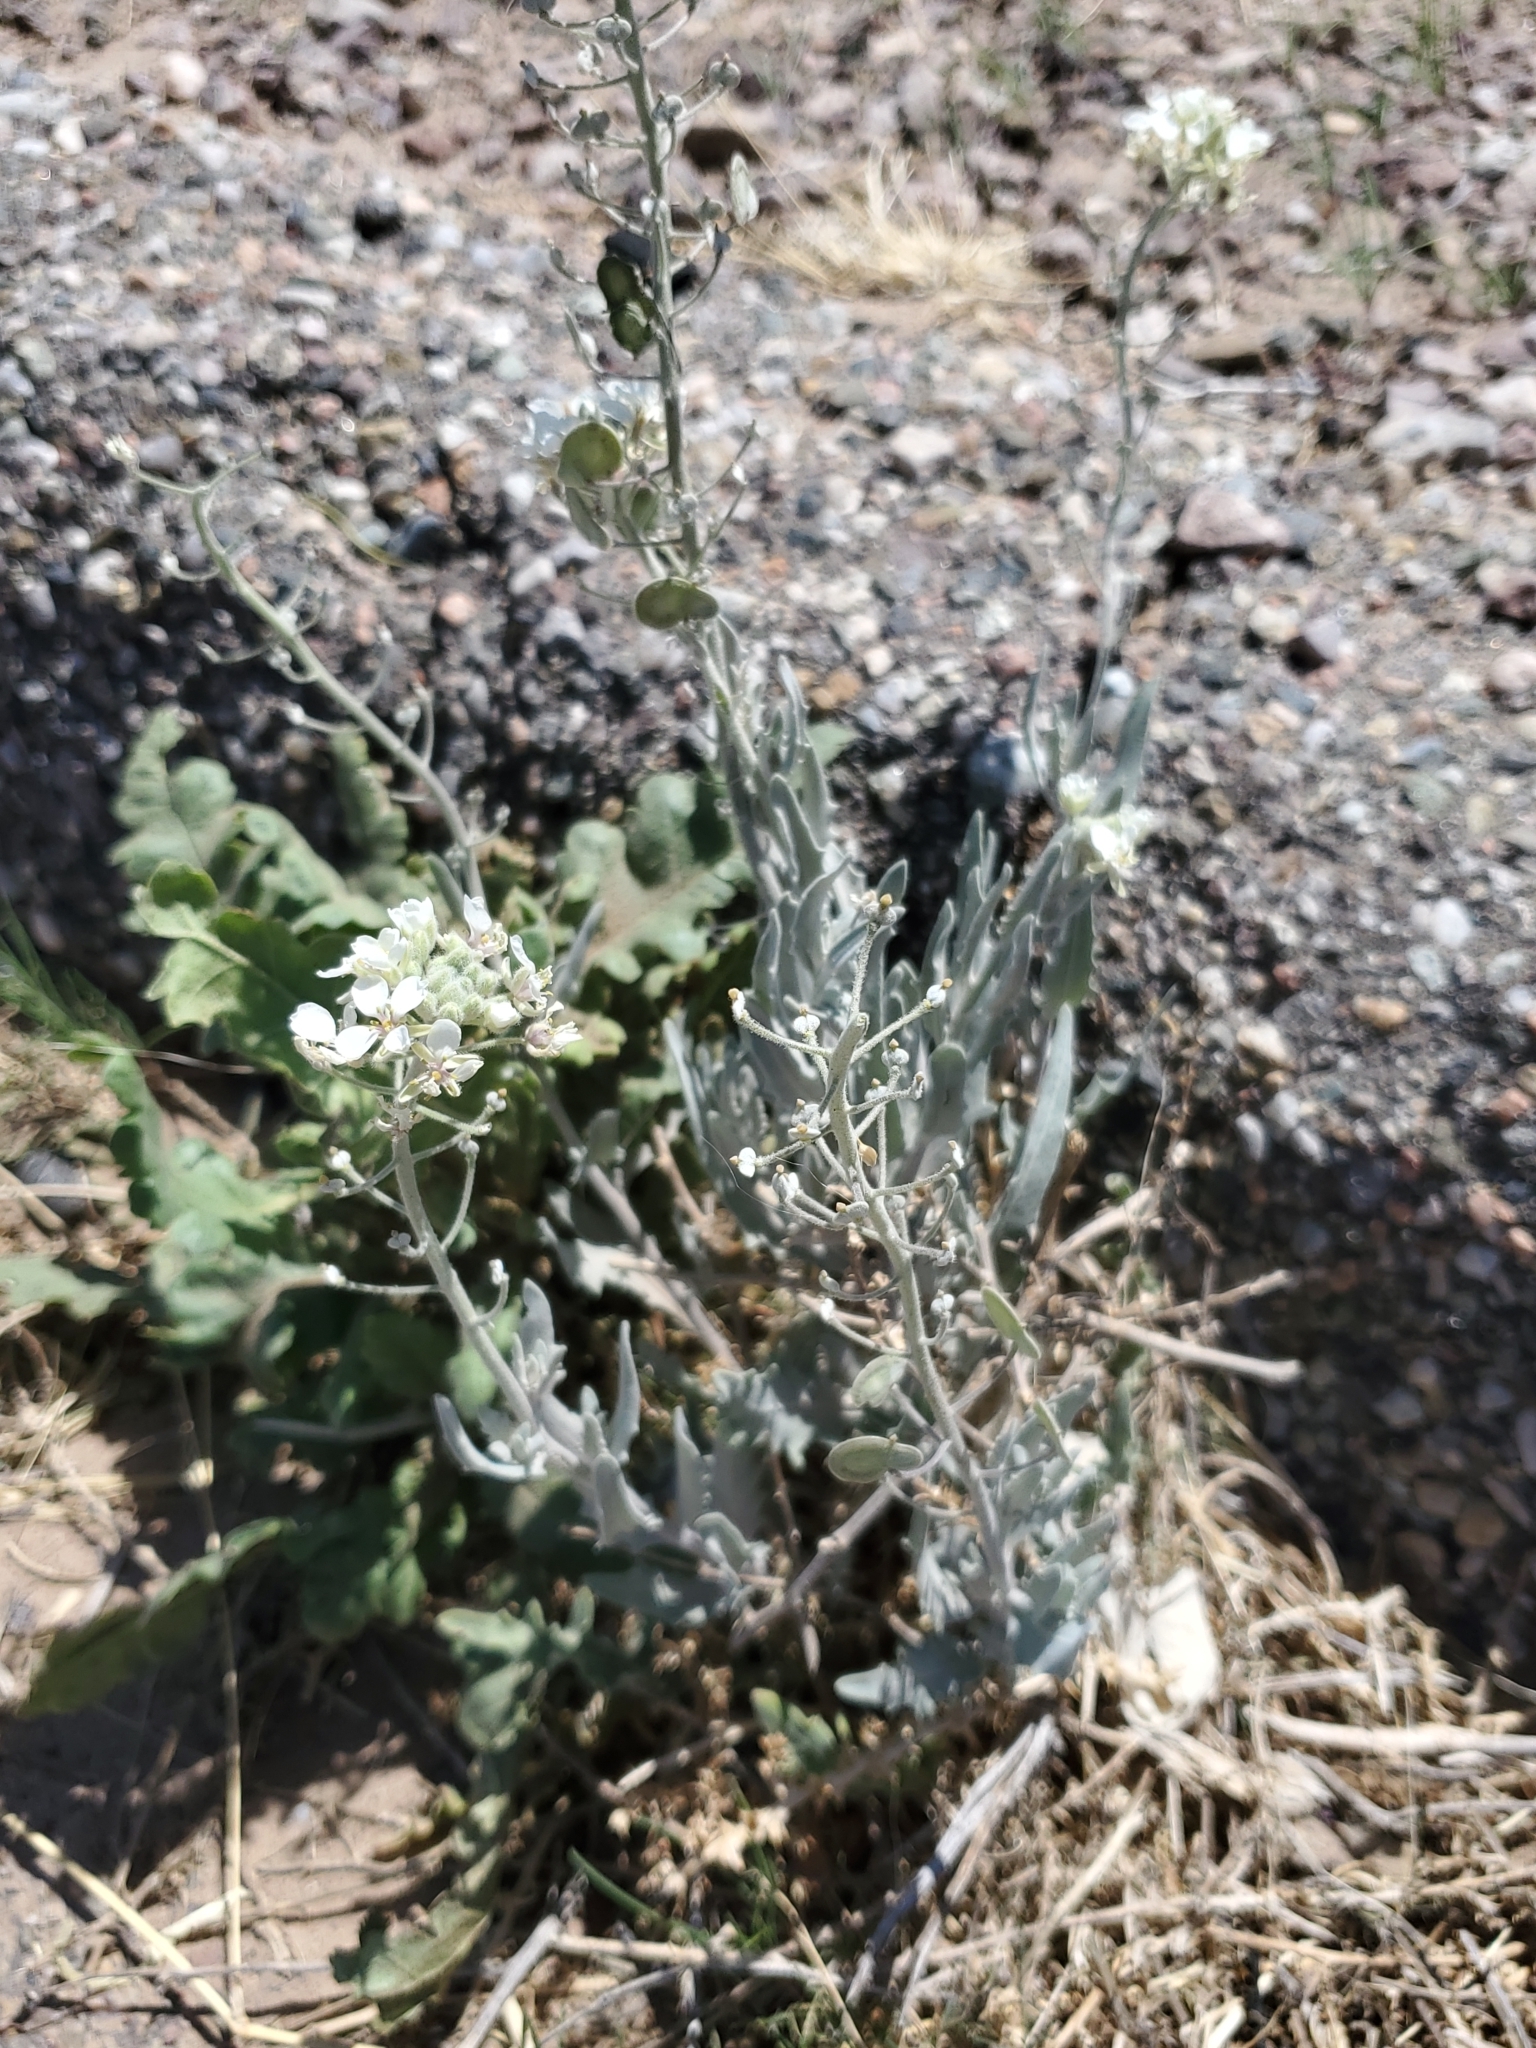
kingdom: Plantae
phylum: Tracheophyta
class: Magnoliopsida
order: Brassicales
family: Brassicaceae
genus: Dimorphocarpa
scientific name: Dimorphocarpa wislizenii
